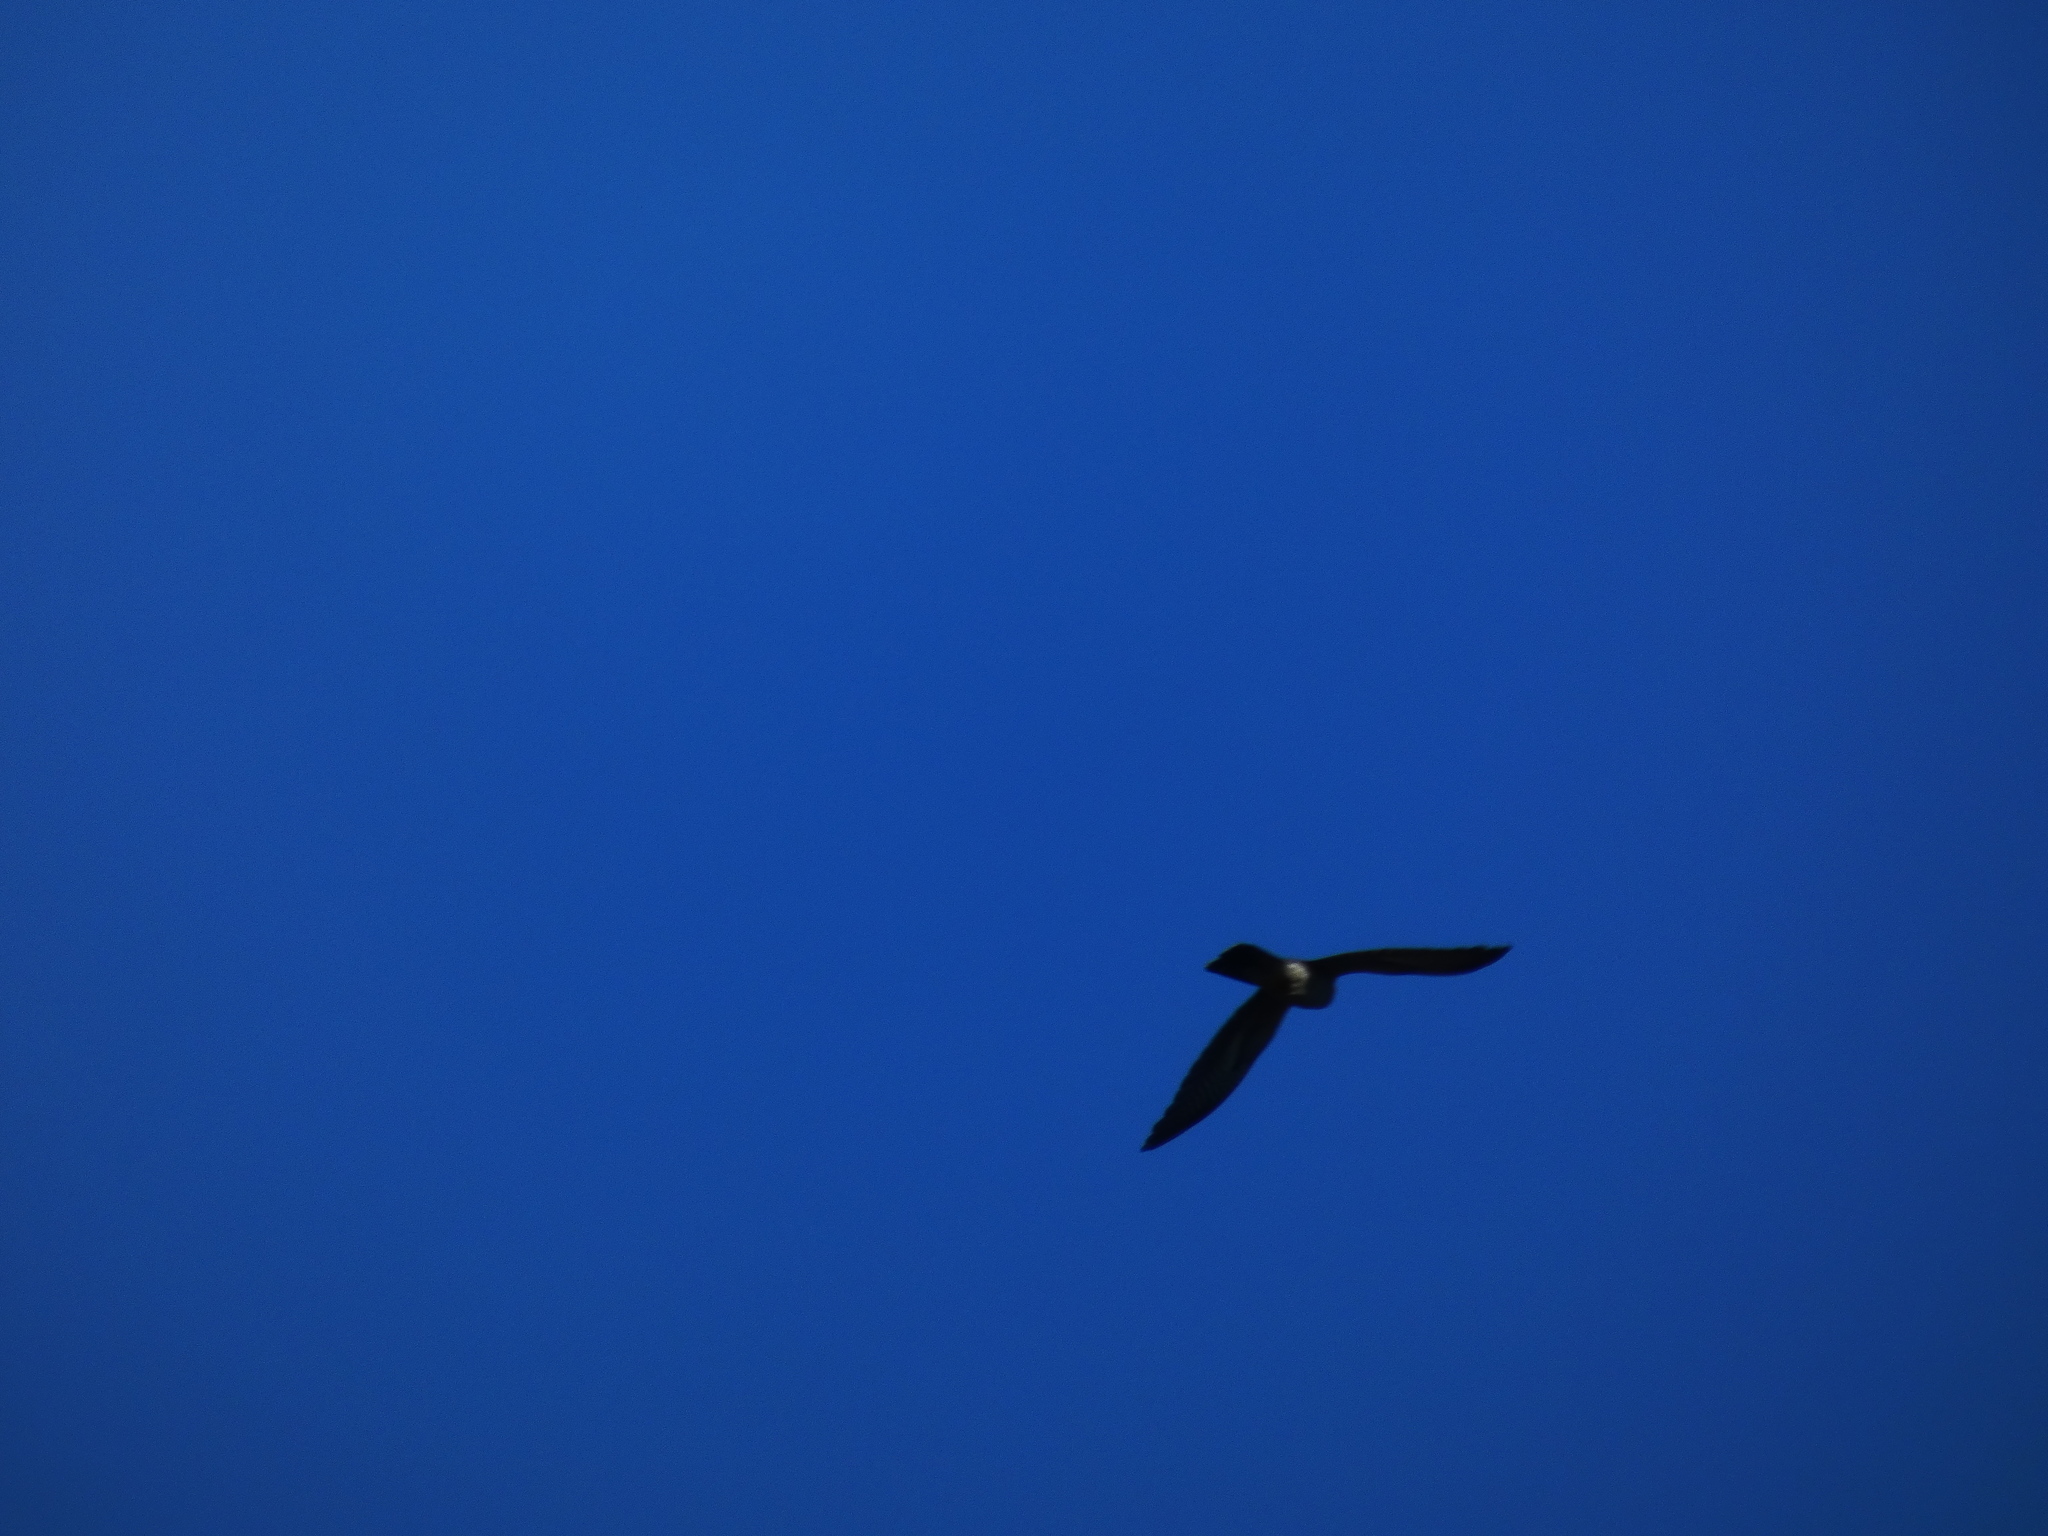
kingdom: Animalia
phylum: Chordata
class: Aves
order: Cuculiformes
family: Cuculidae
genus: Cuculus
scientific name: Cuculus canorus
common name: Common cuckoo
